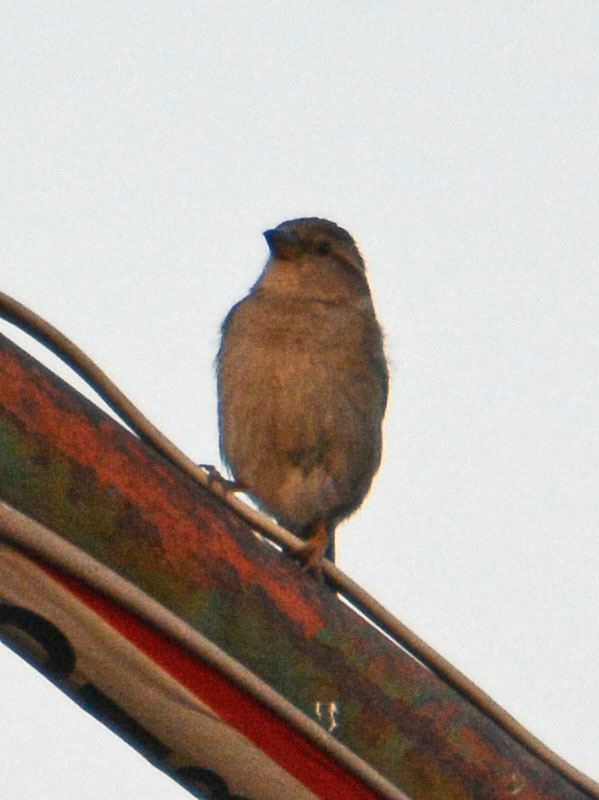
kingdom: Animalia
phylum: Chordata
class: Aves
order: Passeriformes
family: Passeridae
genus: Passer
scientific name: Passer domesticus
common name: House sparrow
